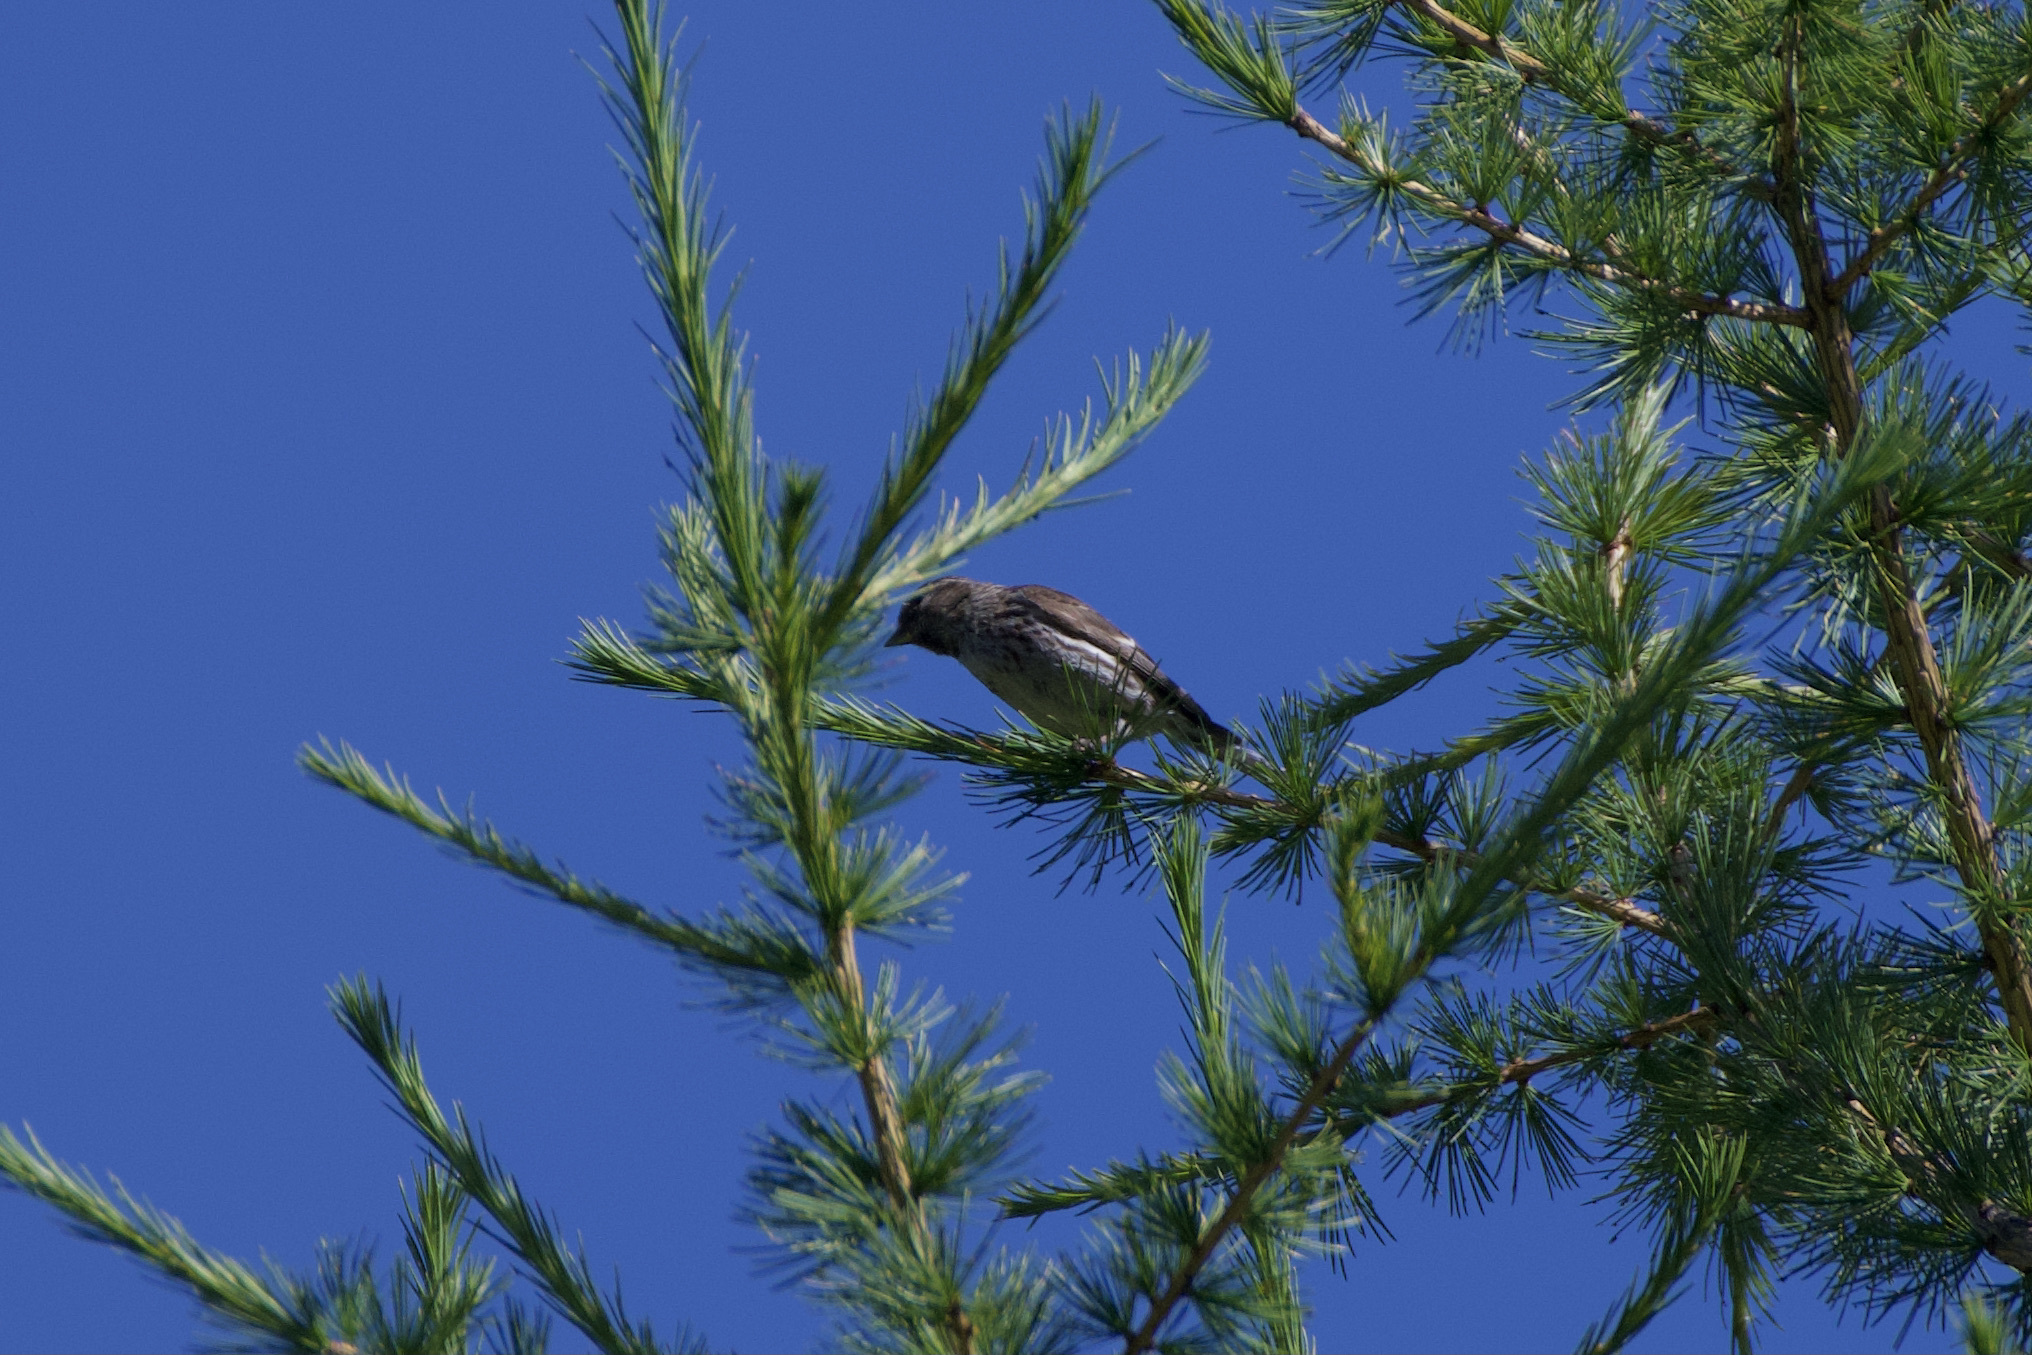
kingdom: Animalia
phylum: Chordata
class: Aves
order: Passeriformes
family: Fringillidae
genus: Acanthis
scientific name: Acanthis flammea
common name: Common redpoll
